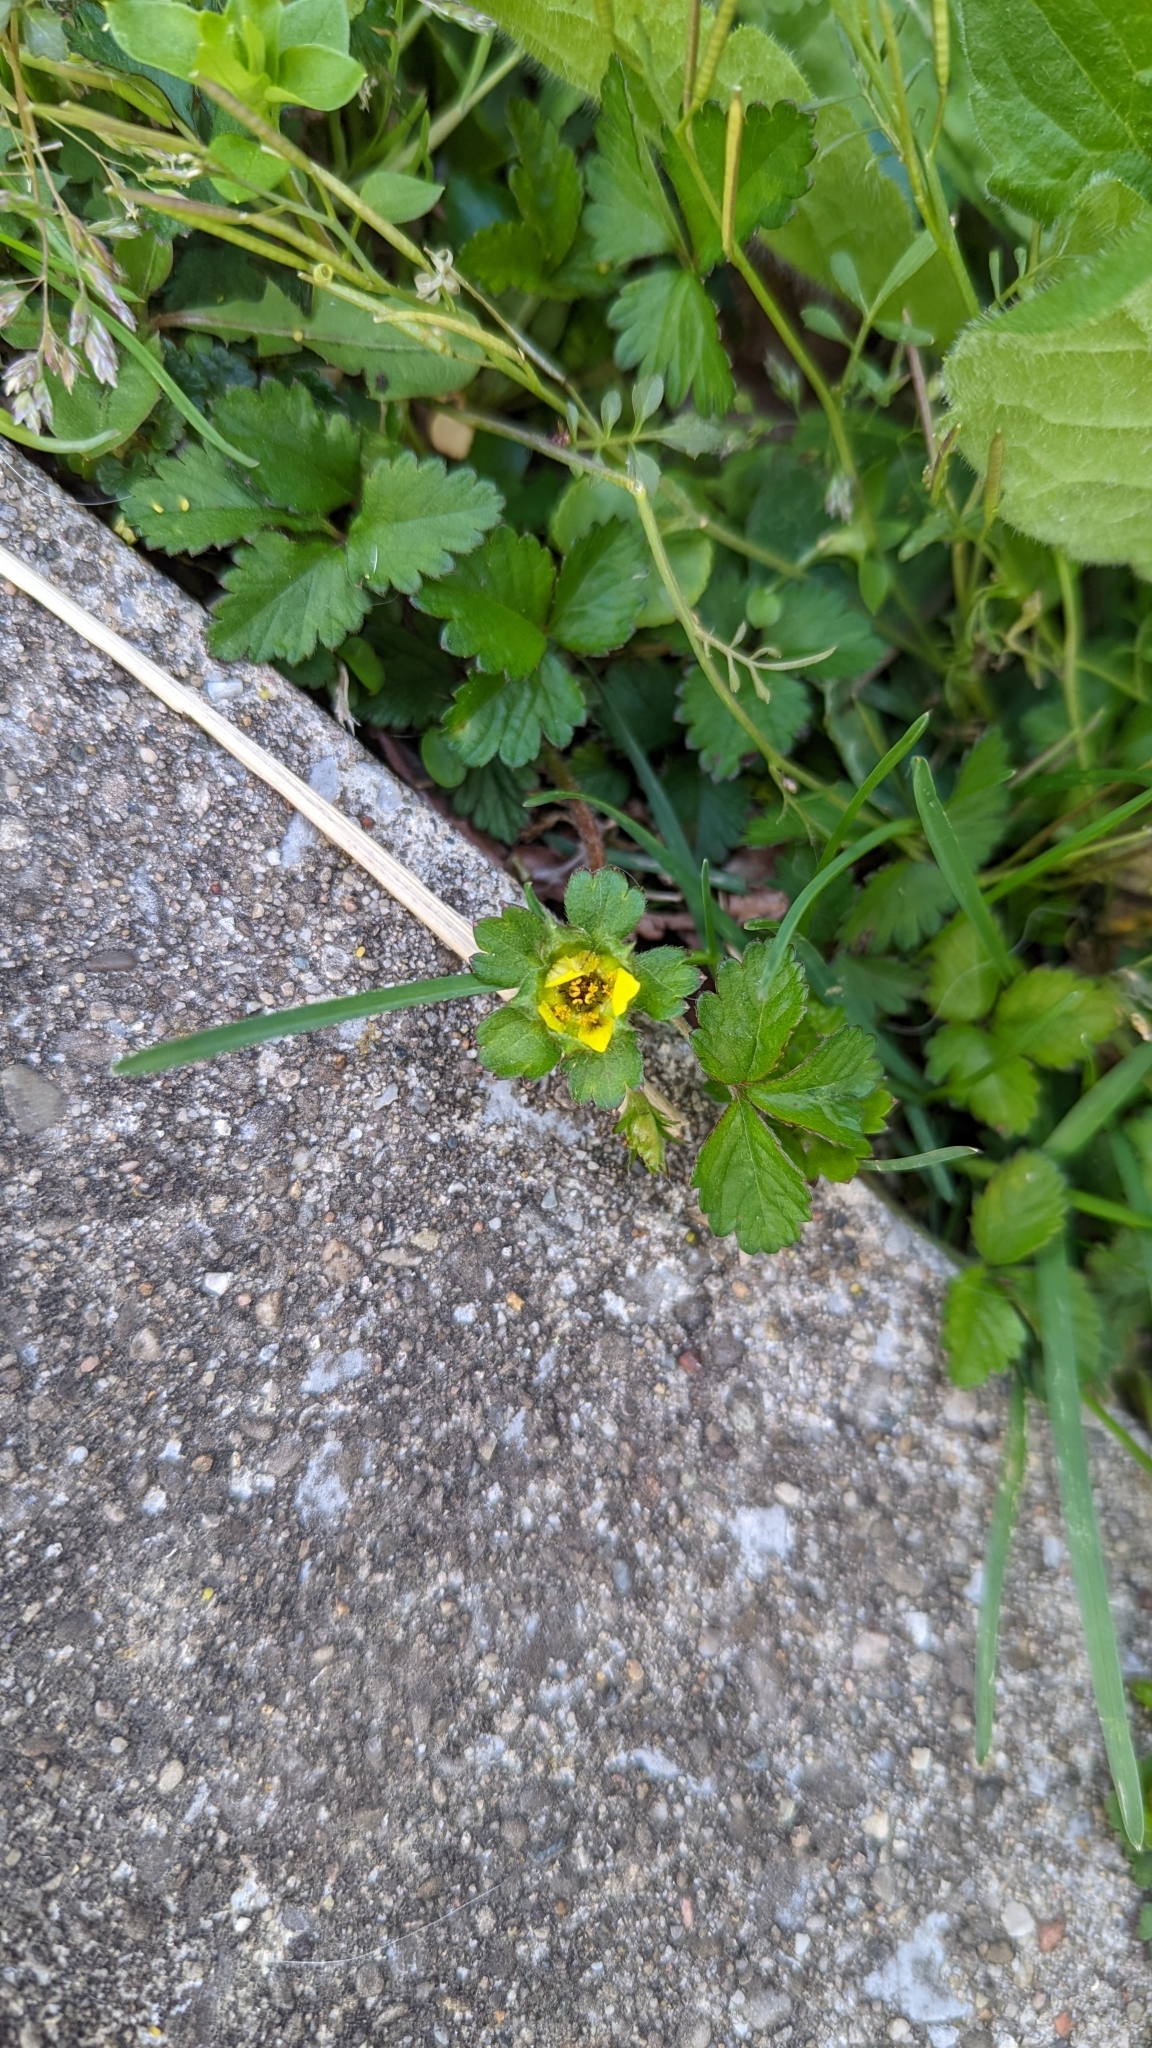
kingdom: Plantae
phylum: Tracheophyta
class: Magnoliopsida
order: Rosales
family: Rosaceae
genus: Potentilla
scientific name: Potentilla indica
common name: Yellow-flowered strawberry
